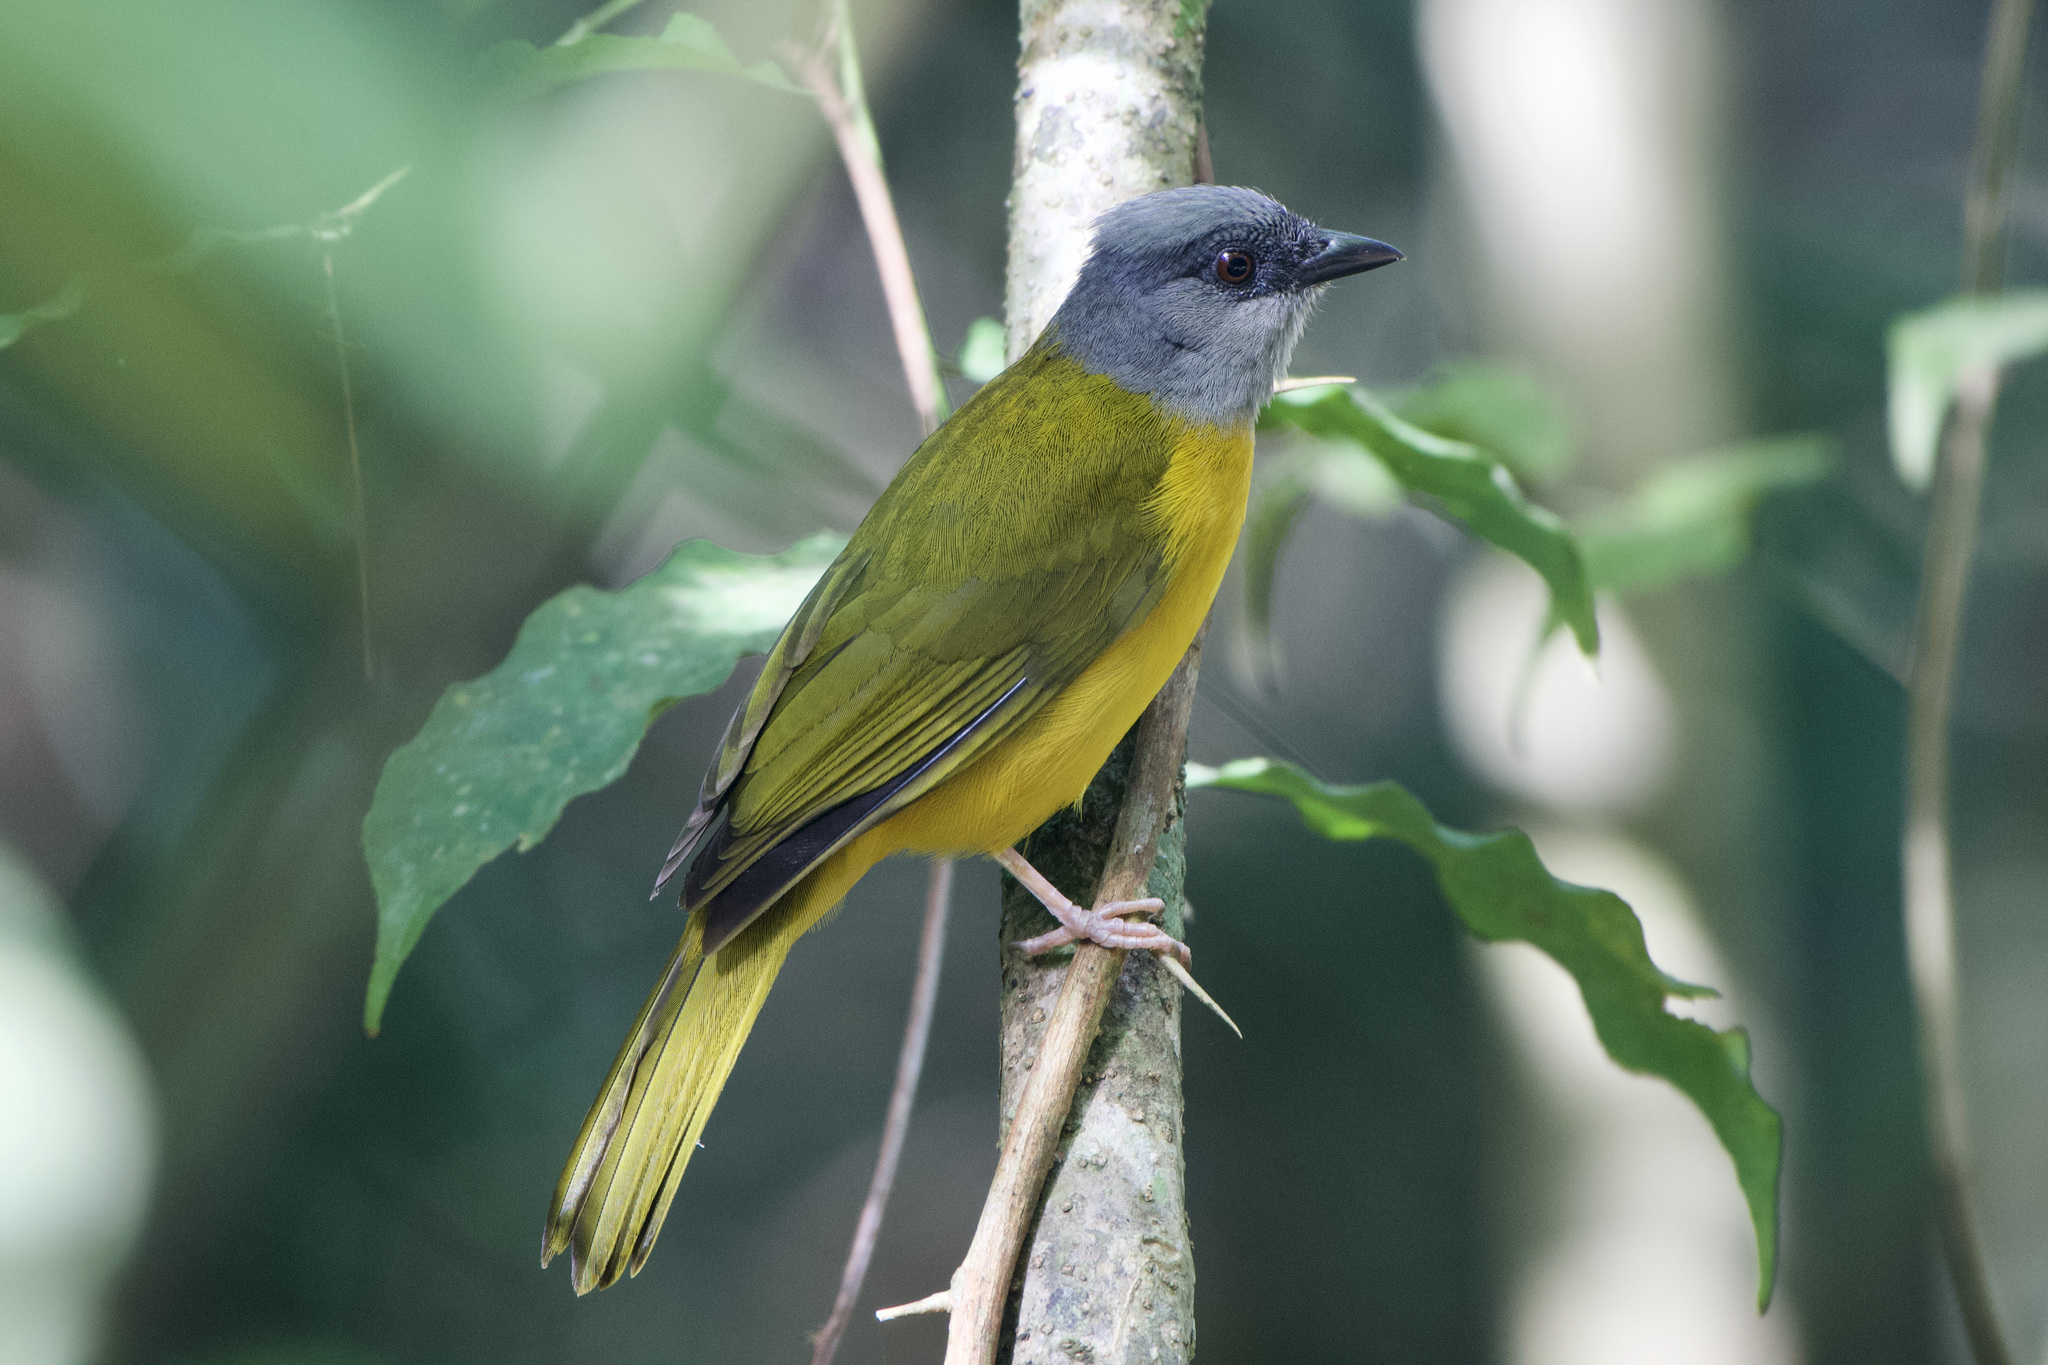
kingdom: Animalia
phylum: Chordata
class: Aves
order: Passeriformes
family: Thraupidae
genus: Eucometis
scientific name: Eucometis penicillata
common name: Grey-headed tanager
